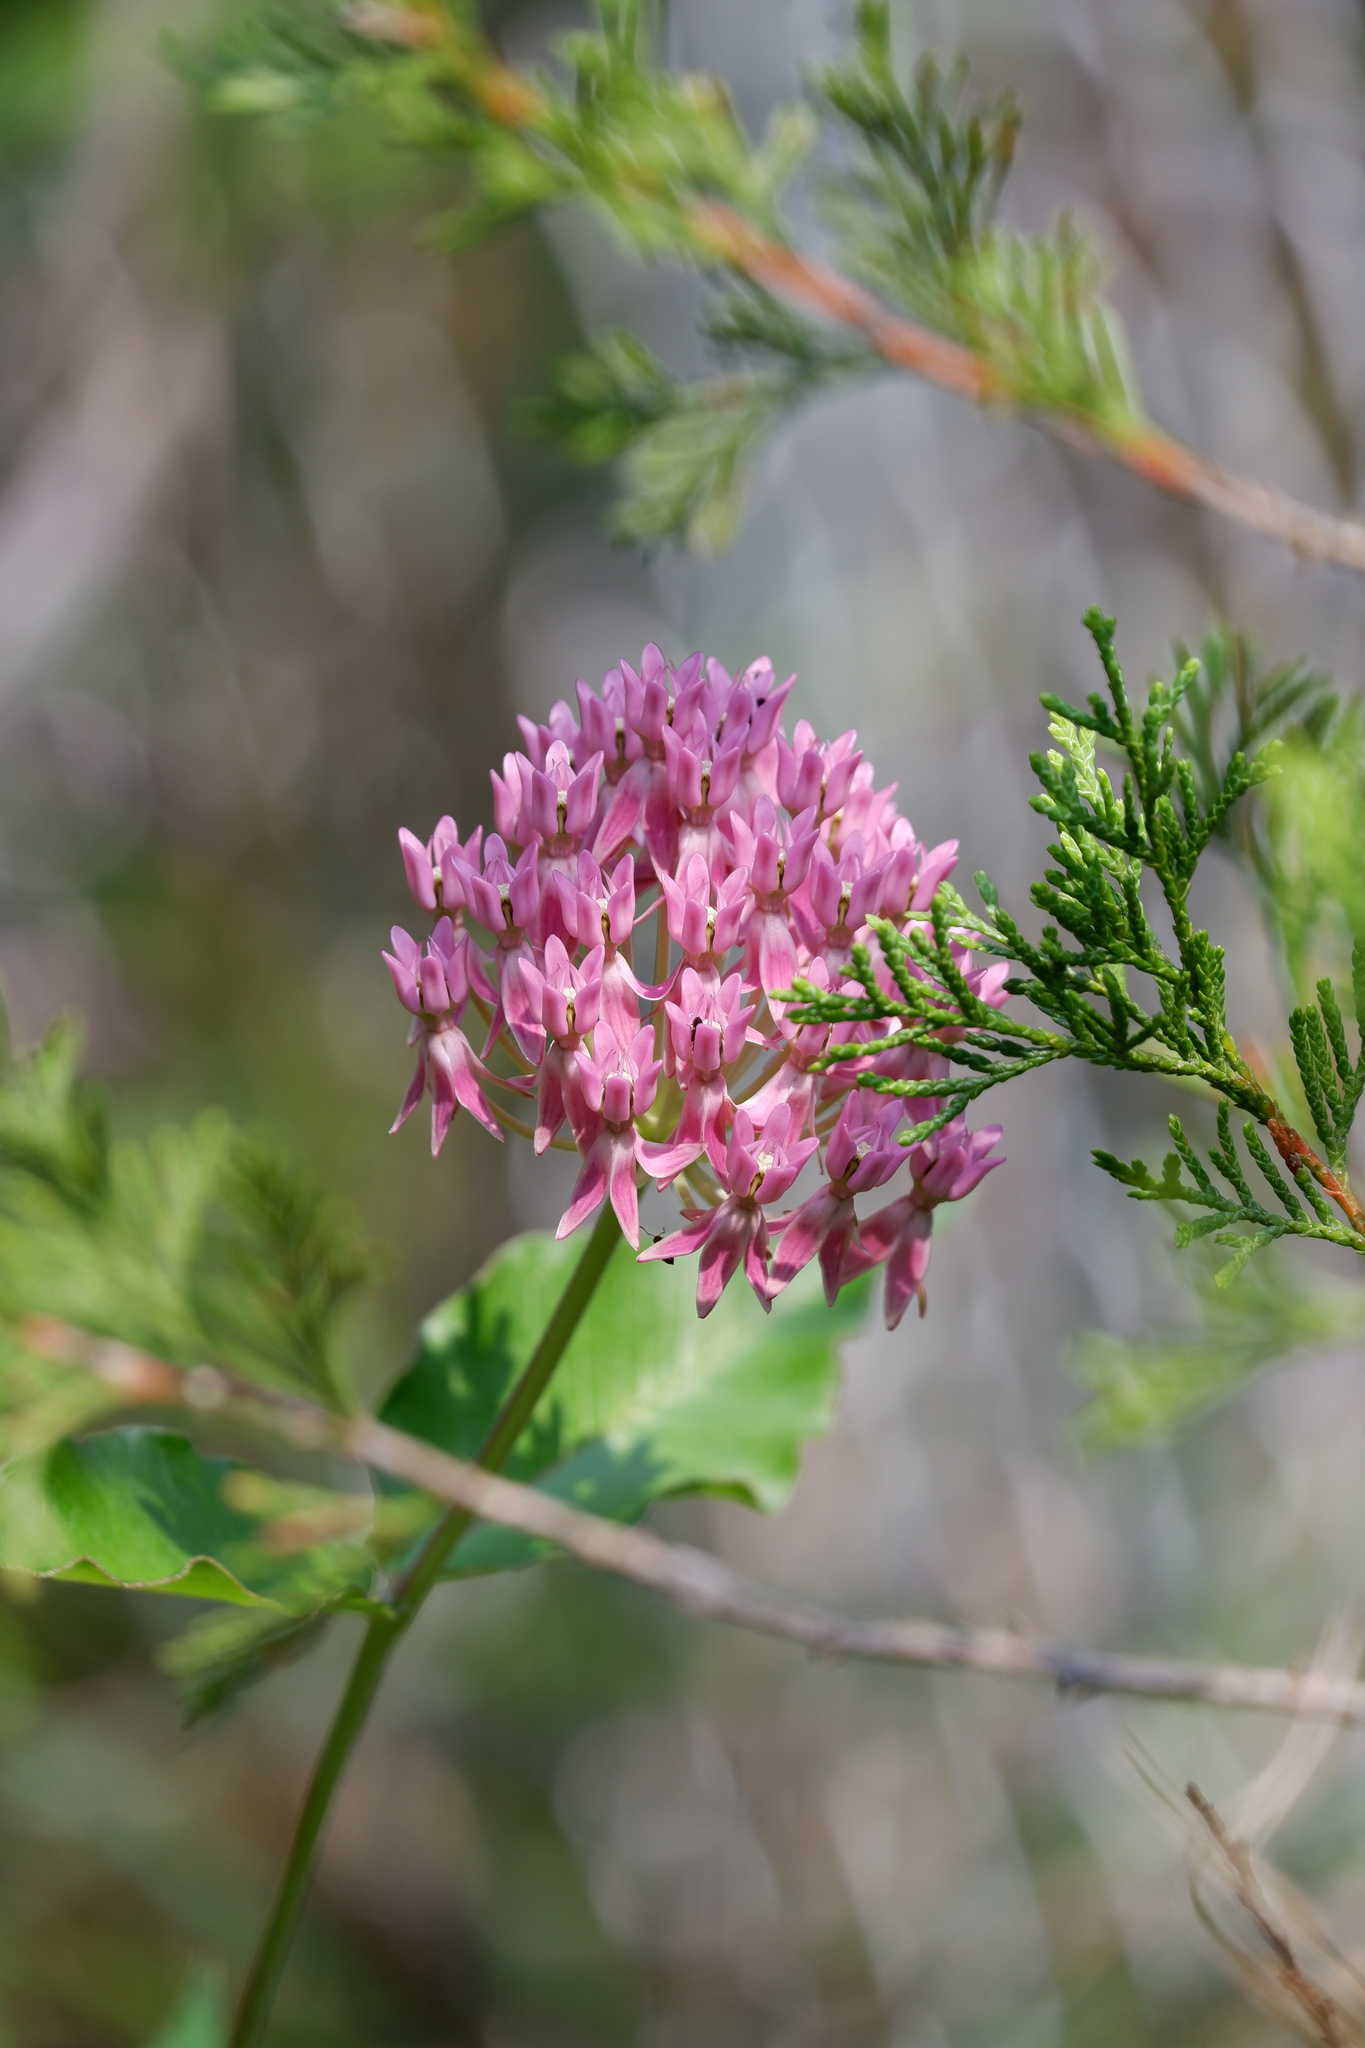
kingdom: Plantae
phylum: Tracheophyta
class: Magnoliopsida
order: Gentianales
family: Apocynaceae
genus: Asclepias
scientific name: Asclepias rubra
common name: Red milkweed
